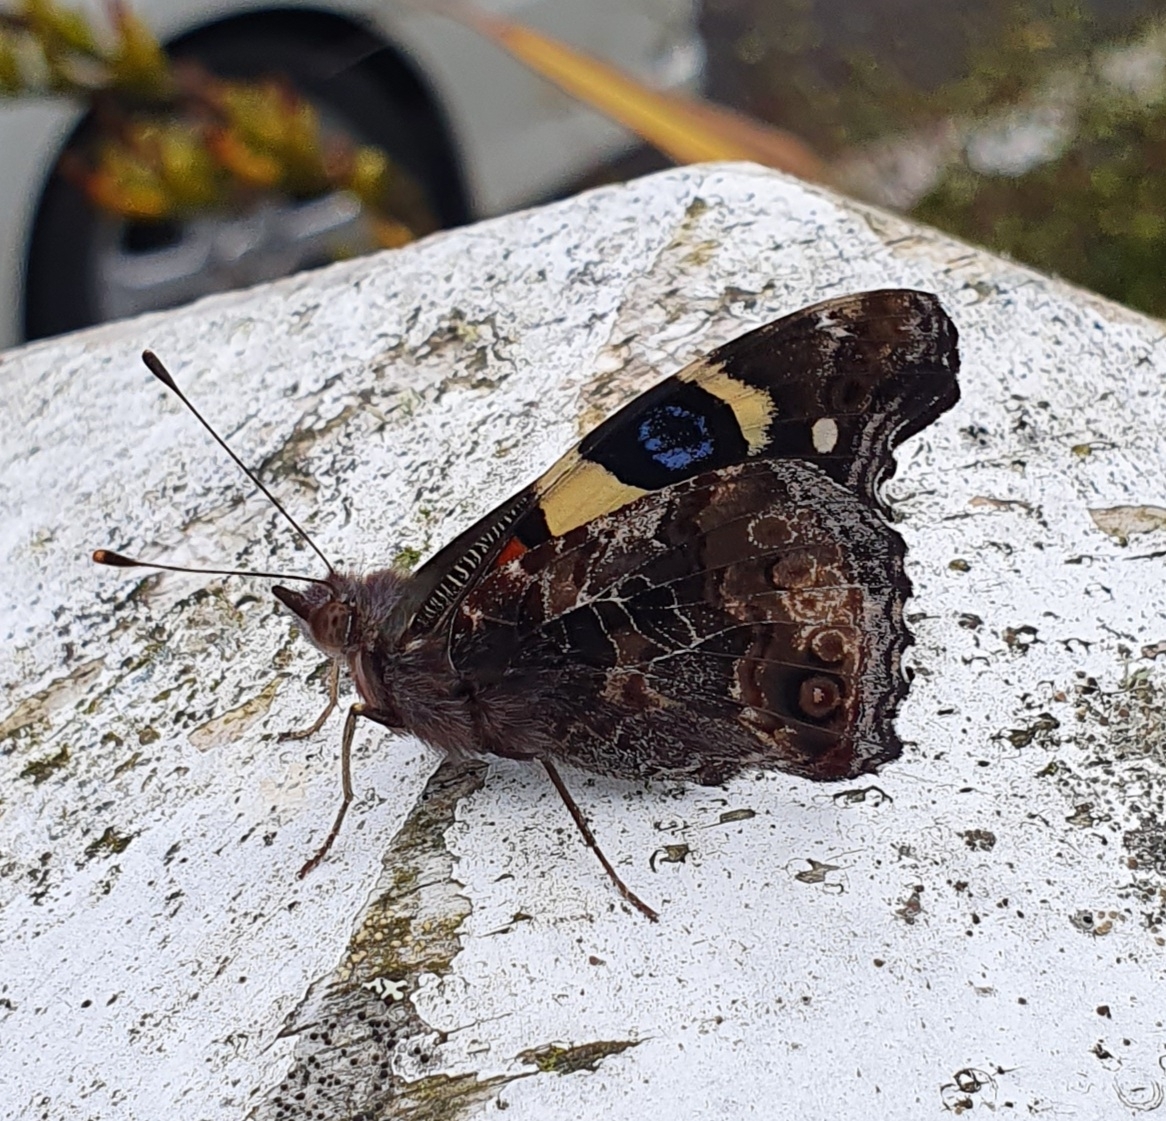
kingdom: Animalia
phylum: Arthropoda
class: Insecta
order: Lepidoptera
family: Nymphalidae
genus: Vanessa
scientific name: Vanessa itea
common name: Yellow admiral
